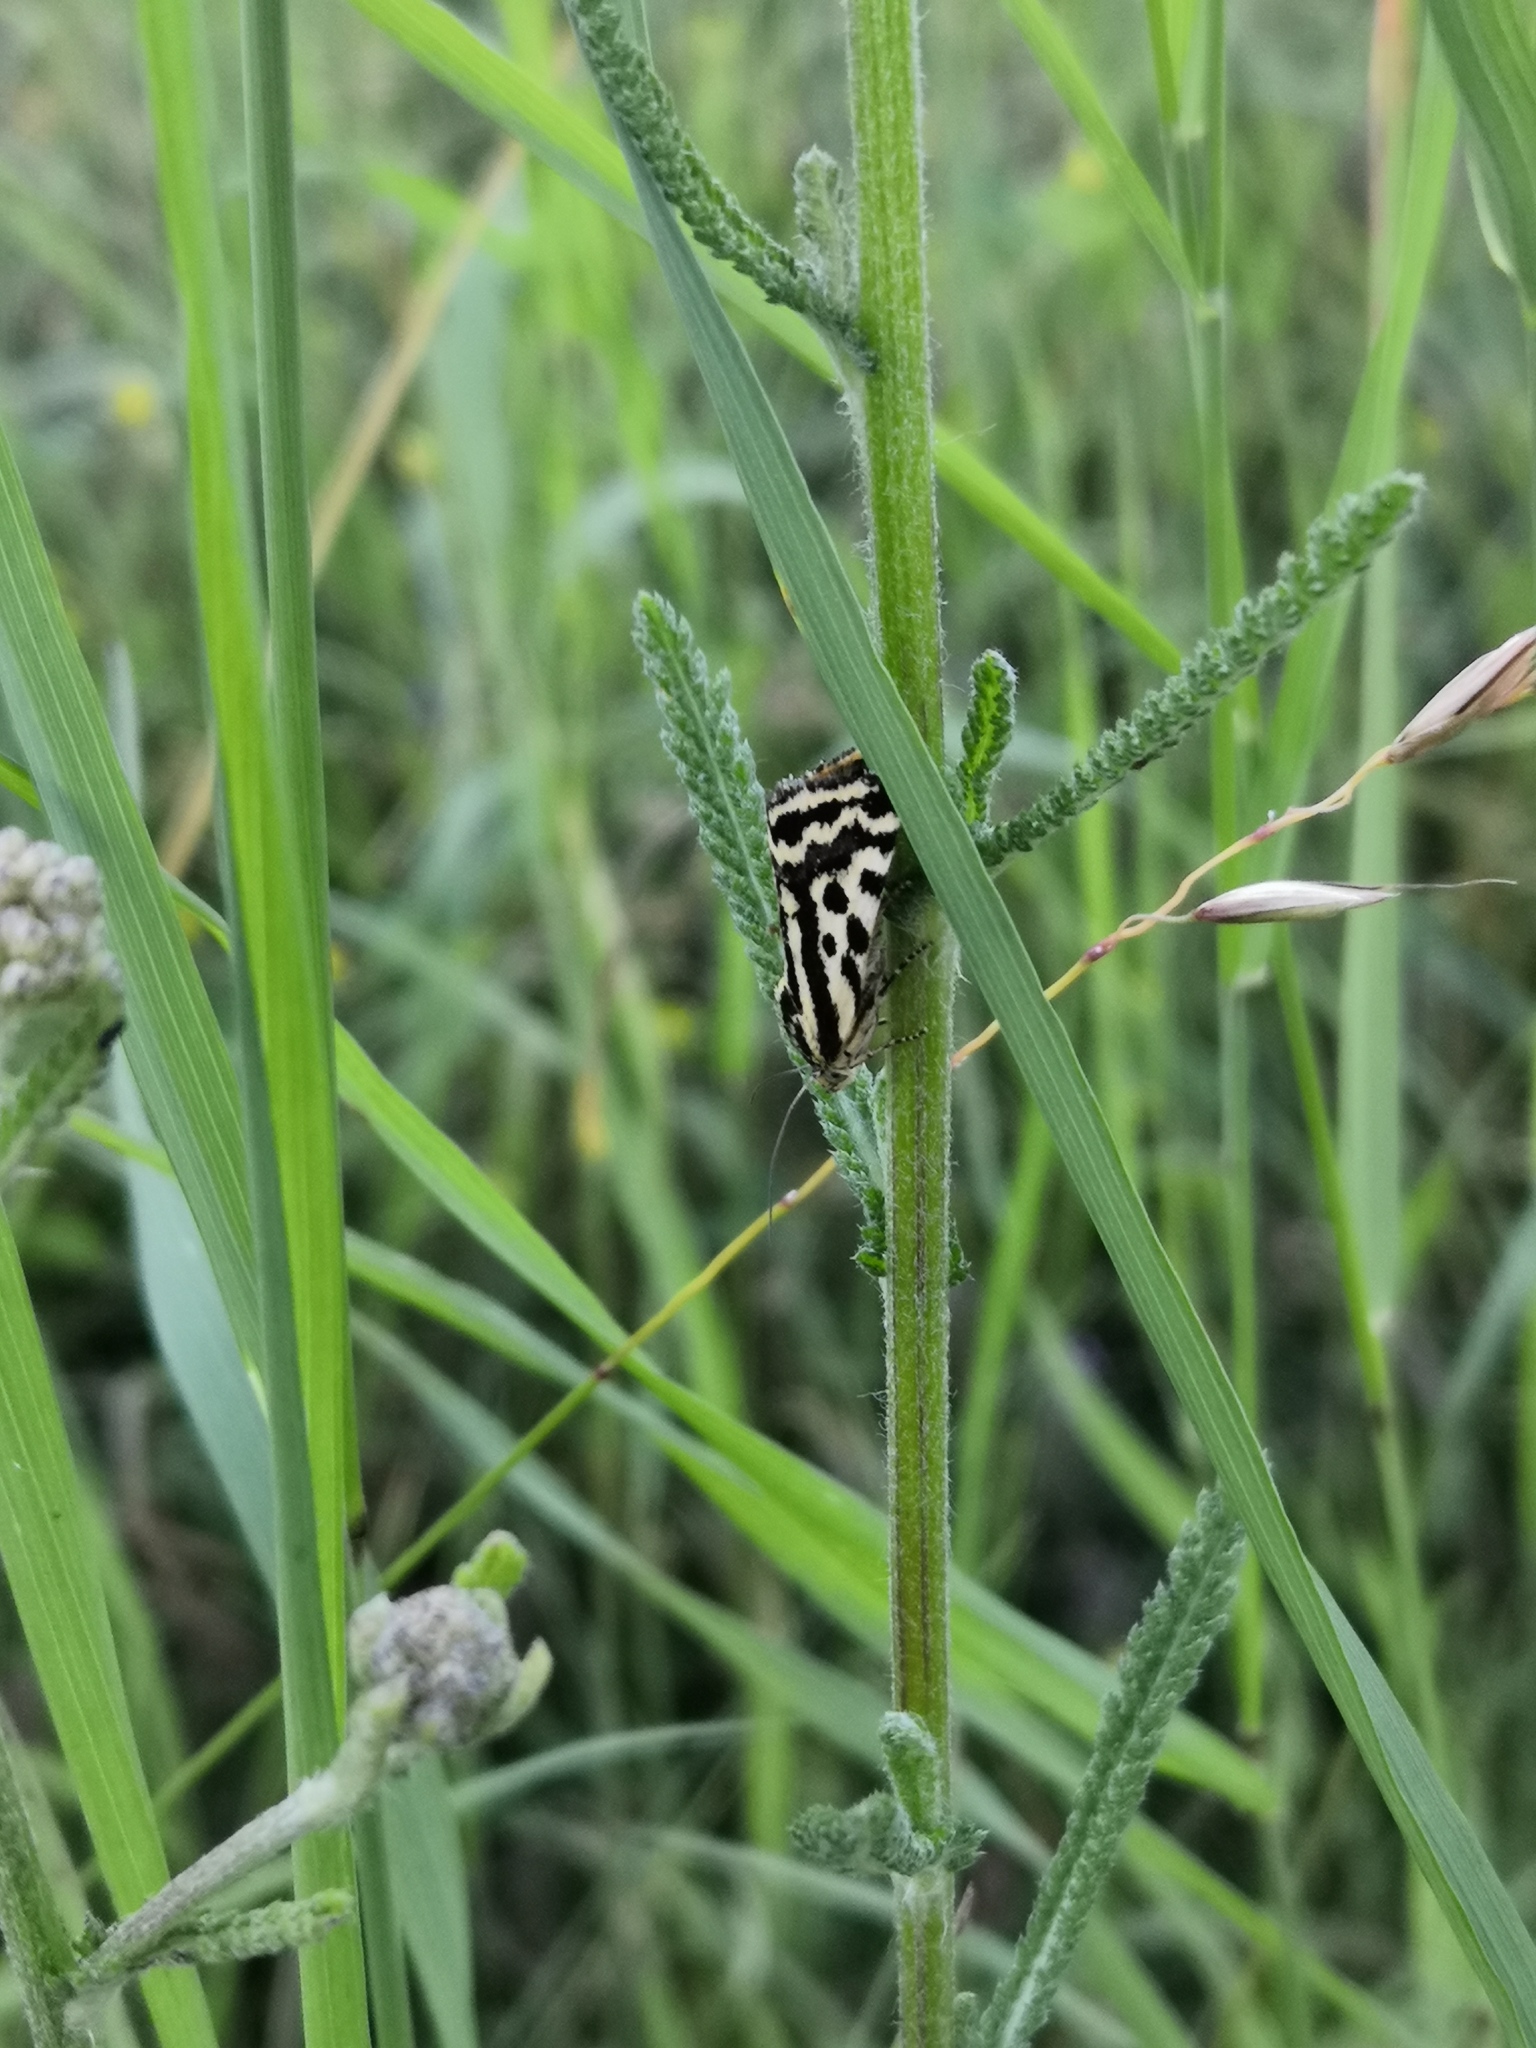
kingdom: Animalia
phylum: Arthropoda
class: Insecta
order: Lepidoptera
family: Noctuidae
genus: Acontia
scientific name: Acontia trabealis
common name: Spotted sulphur
